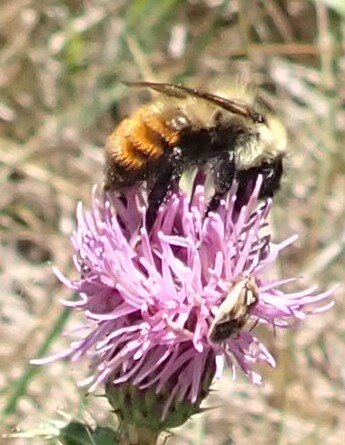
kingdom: Animalia
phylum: Arthropoda
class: Insecta
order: Hymenoptera
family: Apidae
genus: Bombus
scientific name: Bombus rufocinctus
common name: Red-belted bumble bee
